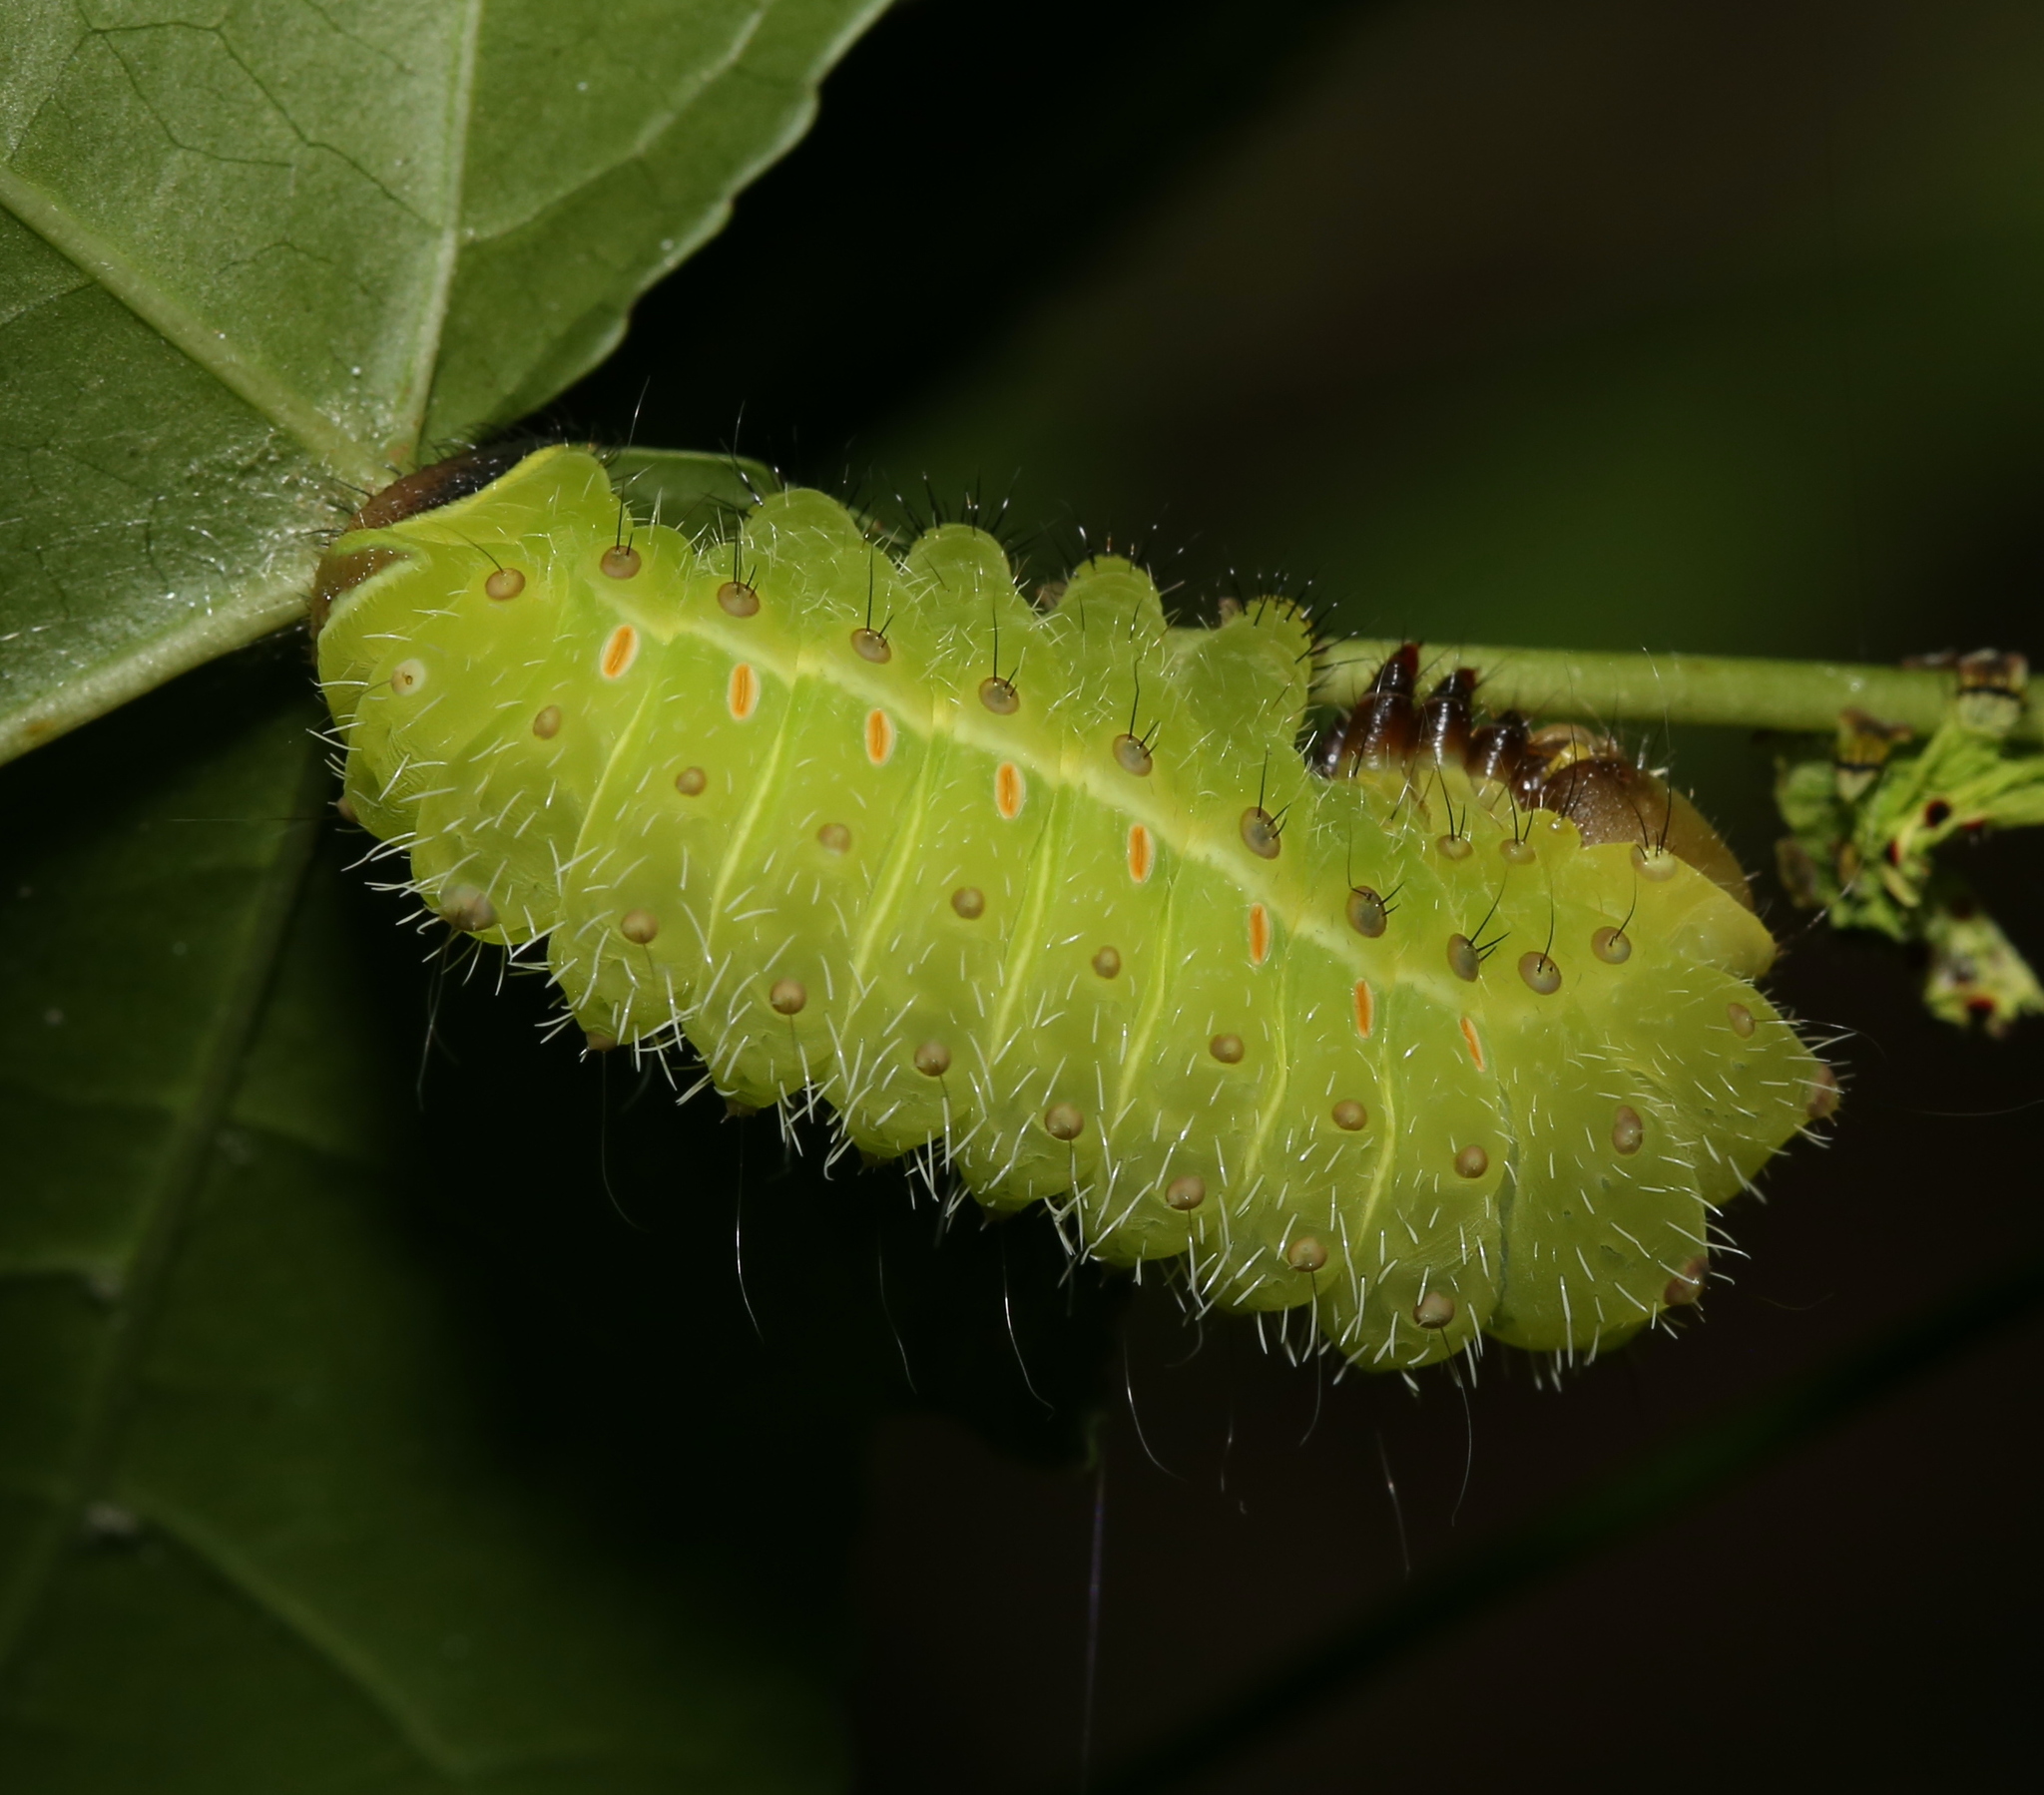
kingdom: Animalia
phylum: Arthropoda
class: Insecta
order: Lepidoptera
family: Saturniidae
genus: Actias
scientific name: Actias luna
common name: Luna moth
